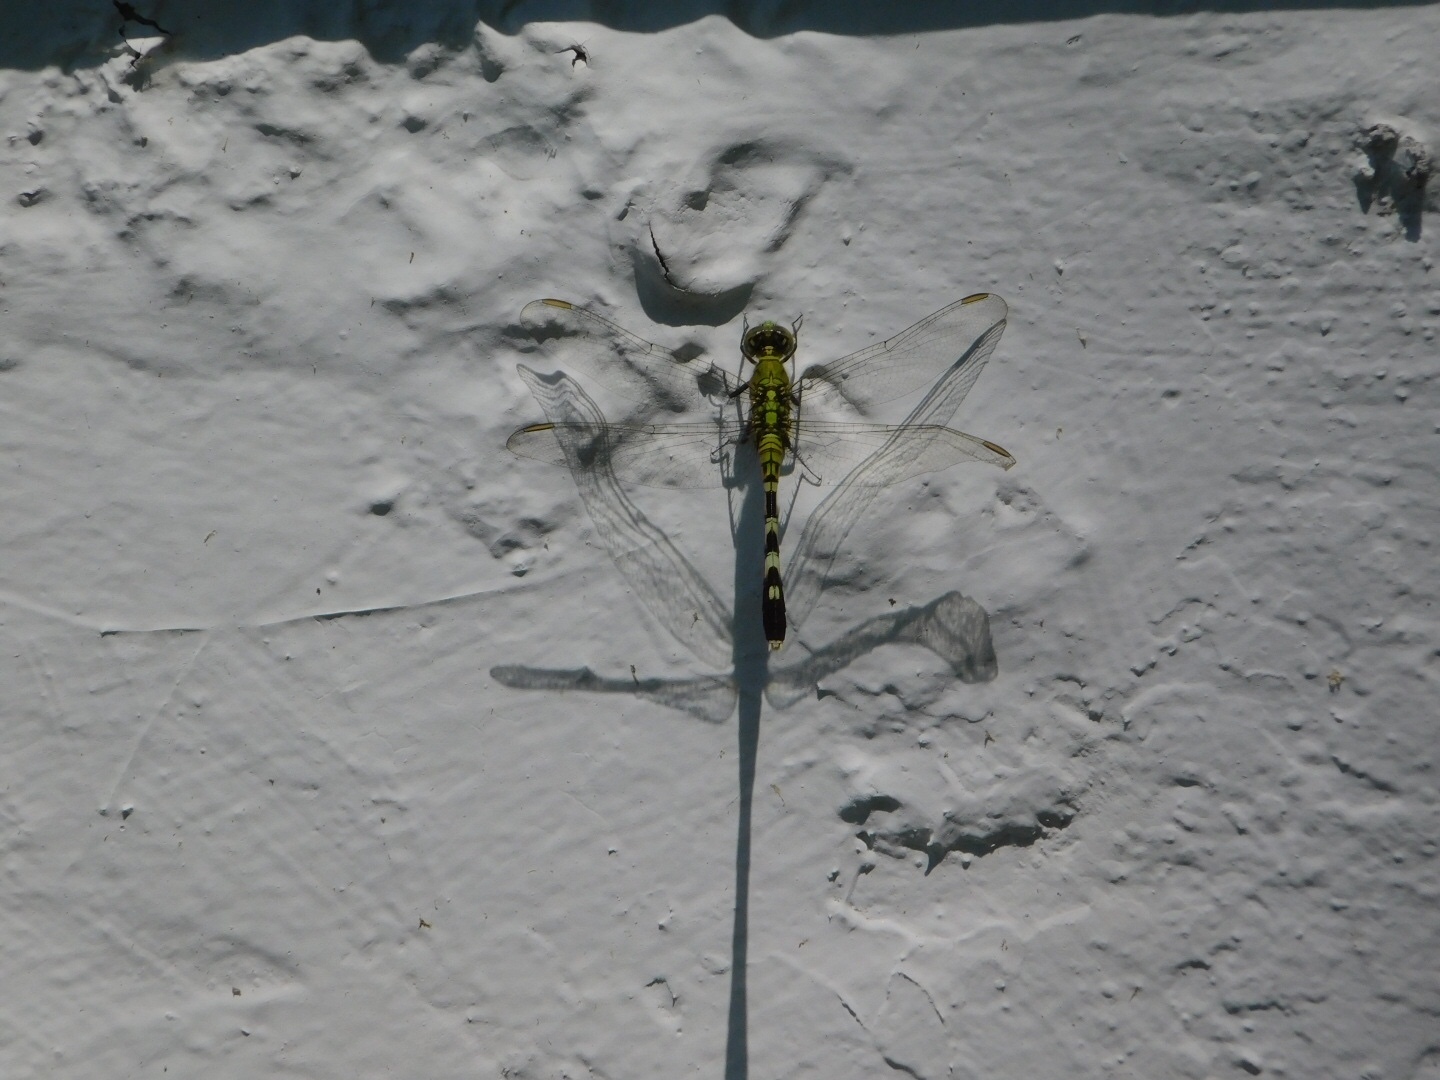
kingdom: Animalia
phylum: Arthropoda
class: Insecta
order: Odonata
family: Libellulidae
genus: Erythemis
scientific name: Erythemis simplicicollis
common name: Eastern pondhawk
